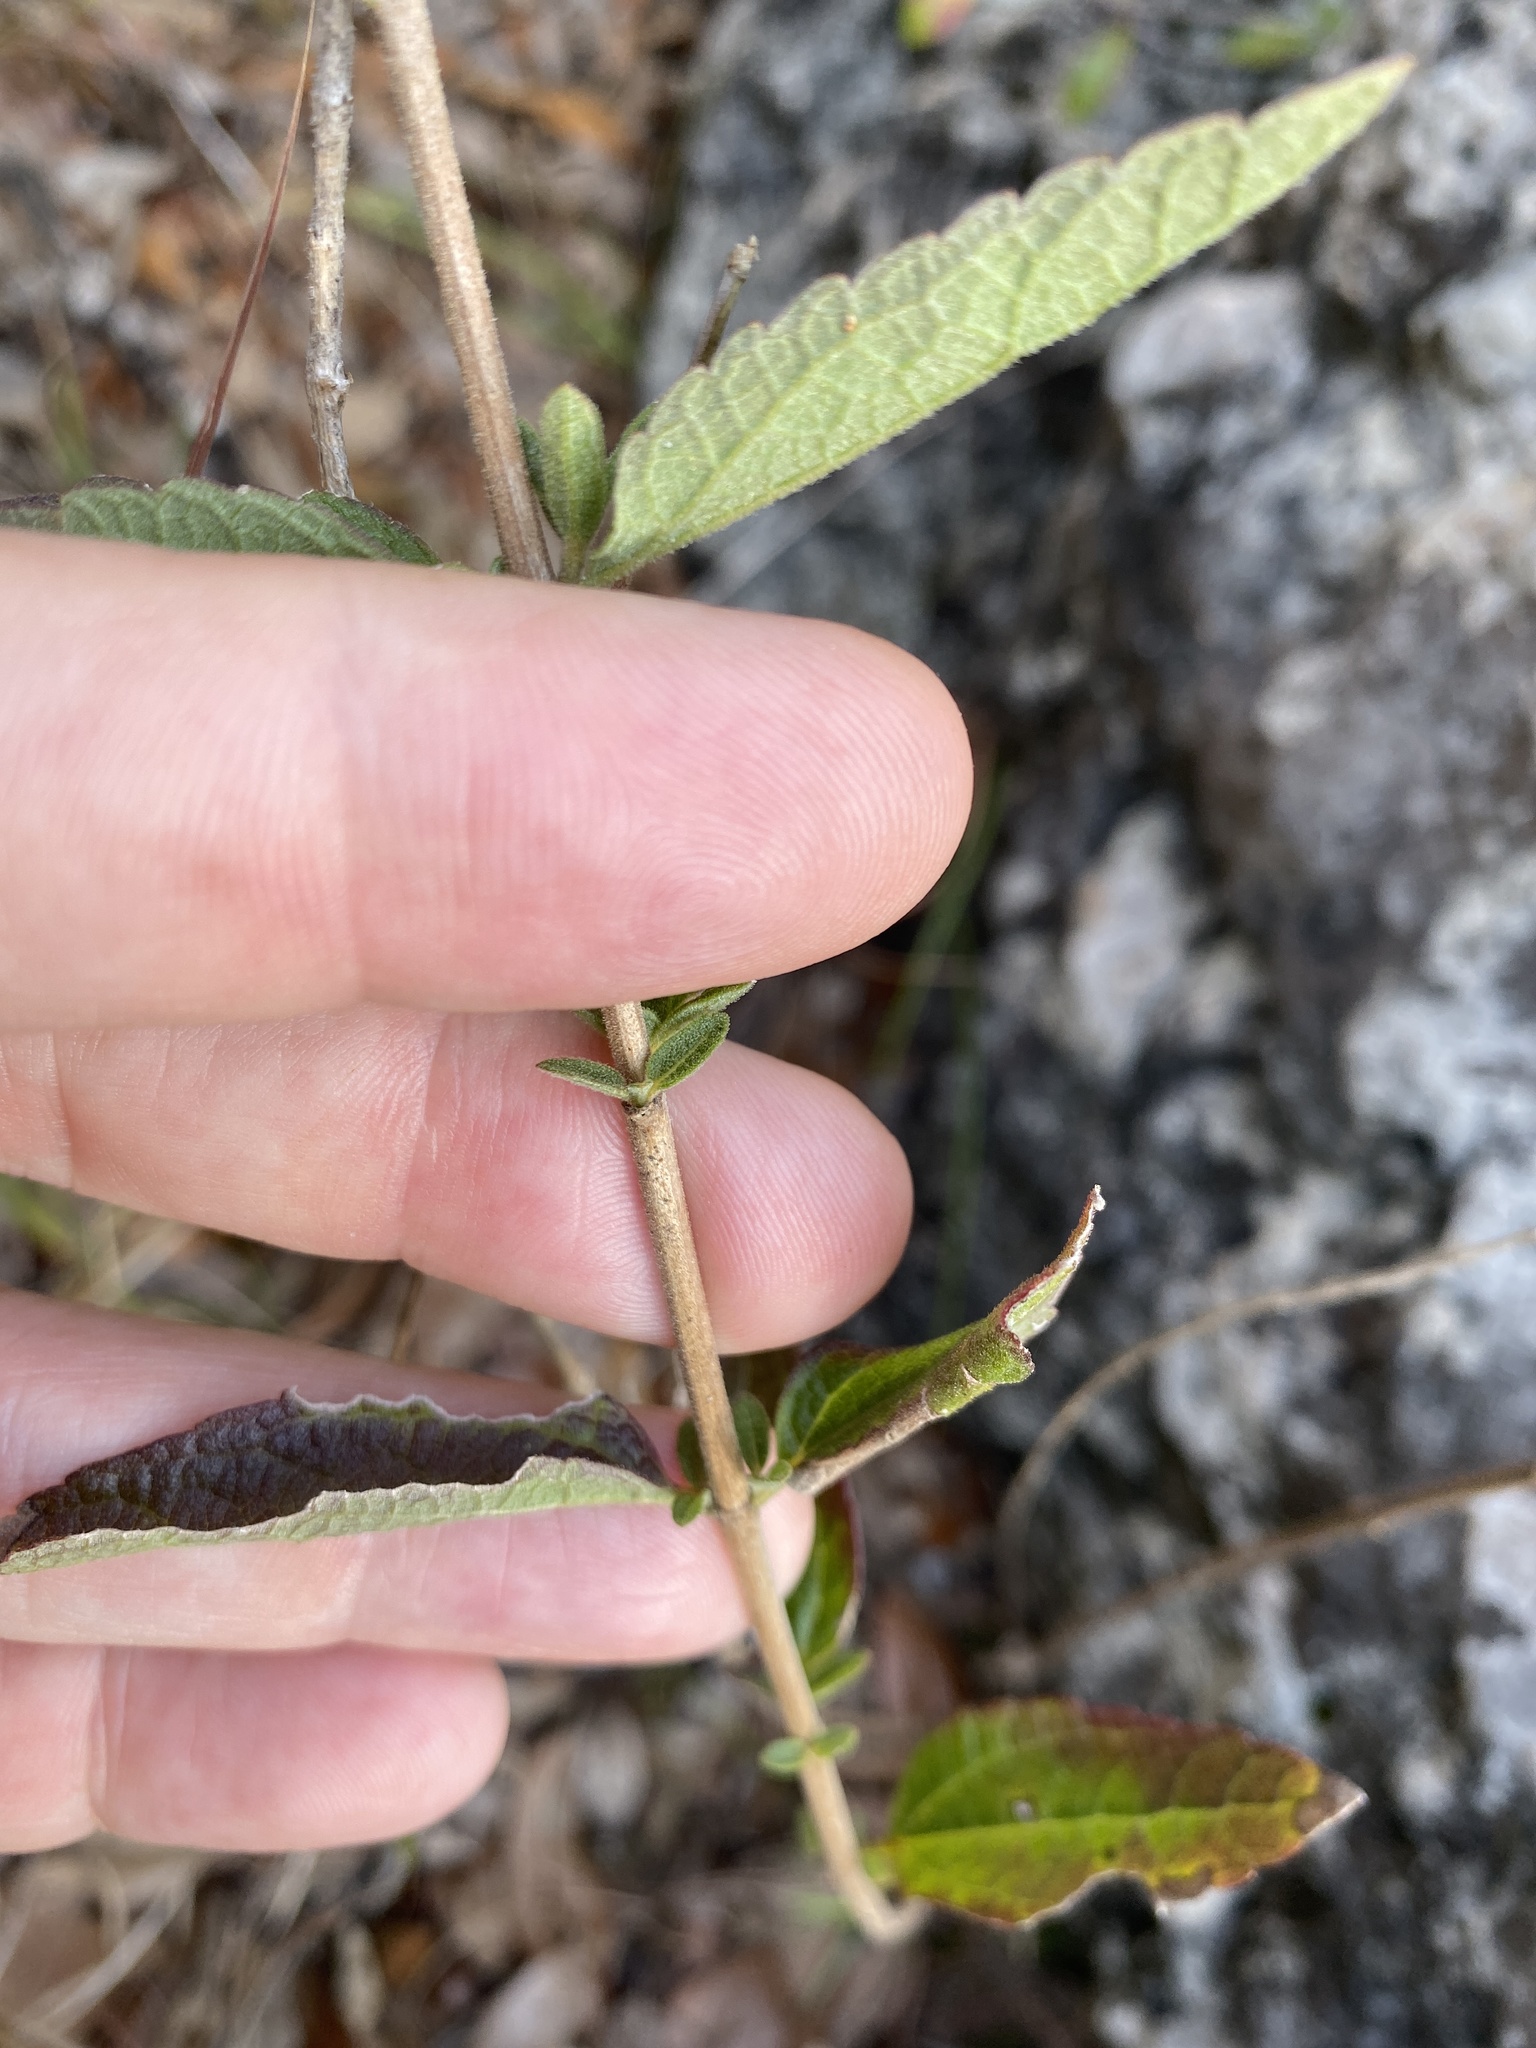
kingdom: Plantae
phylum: Tracheophyta
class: Magnoliopsida
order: Asterales
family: Asteraceae
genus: Brickellia
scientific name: Brickellia cylindracea
